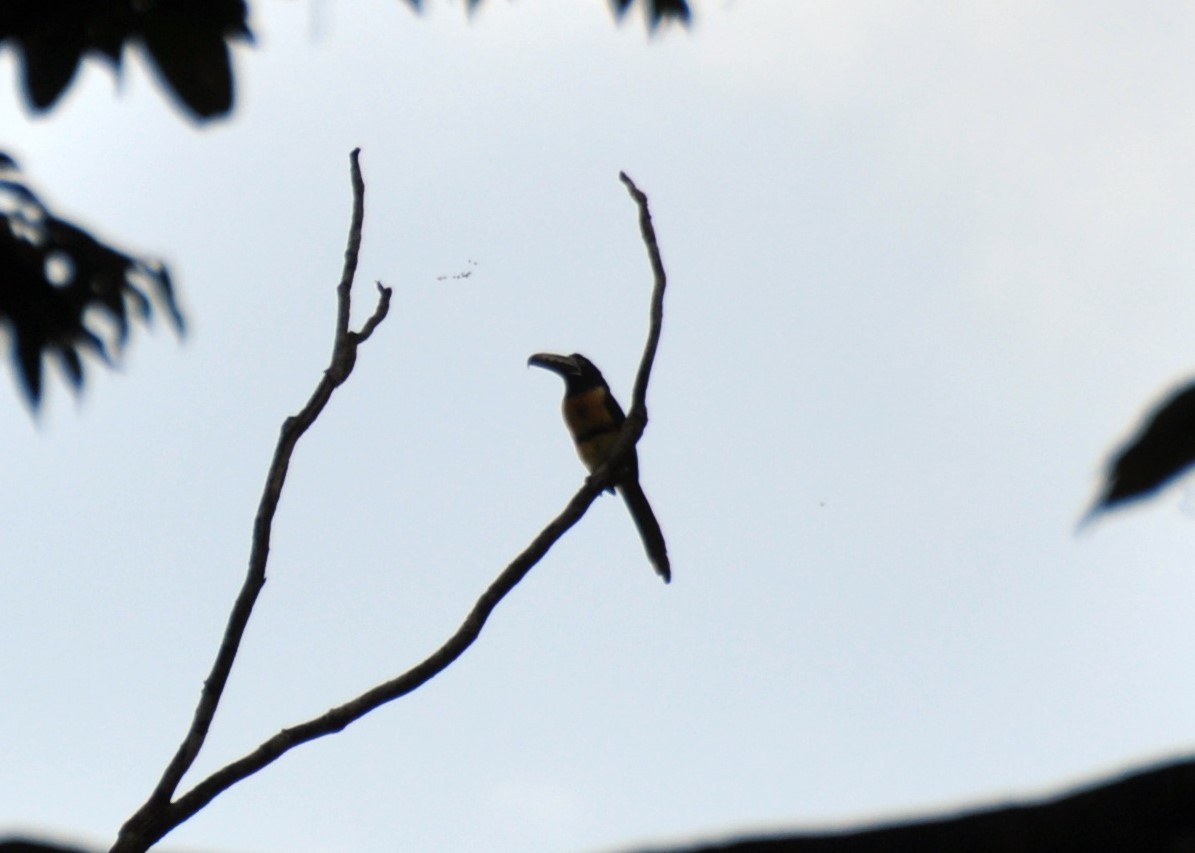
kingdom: Animalia
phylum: Chordata
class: Aves
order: Piciformes
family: Ramphastidae
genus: Pteroglossus
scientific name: Pteroglossus torquatus
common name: Collared aracari
